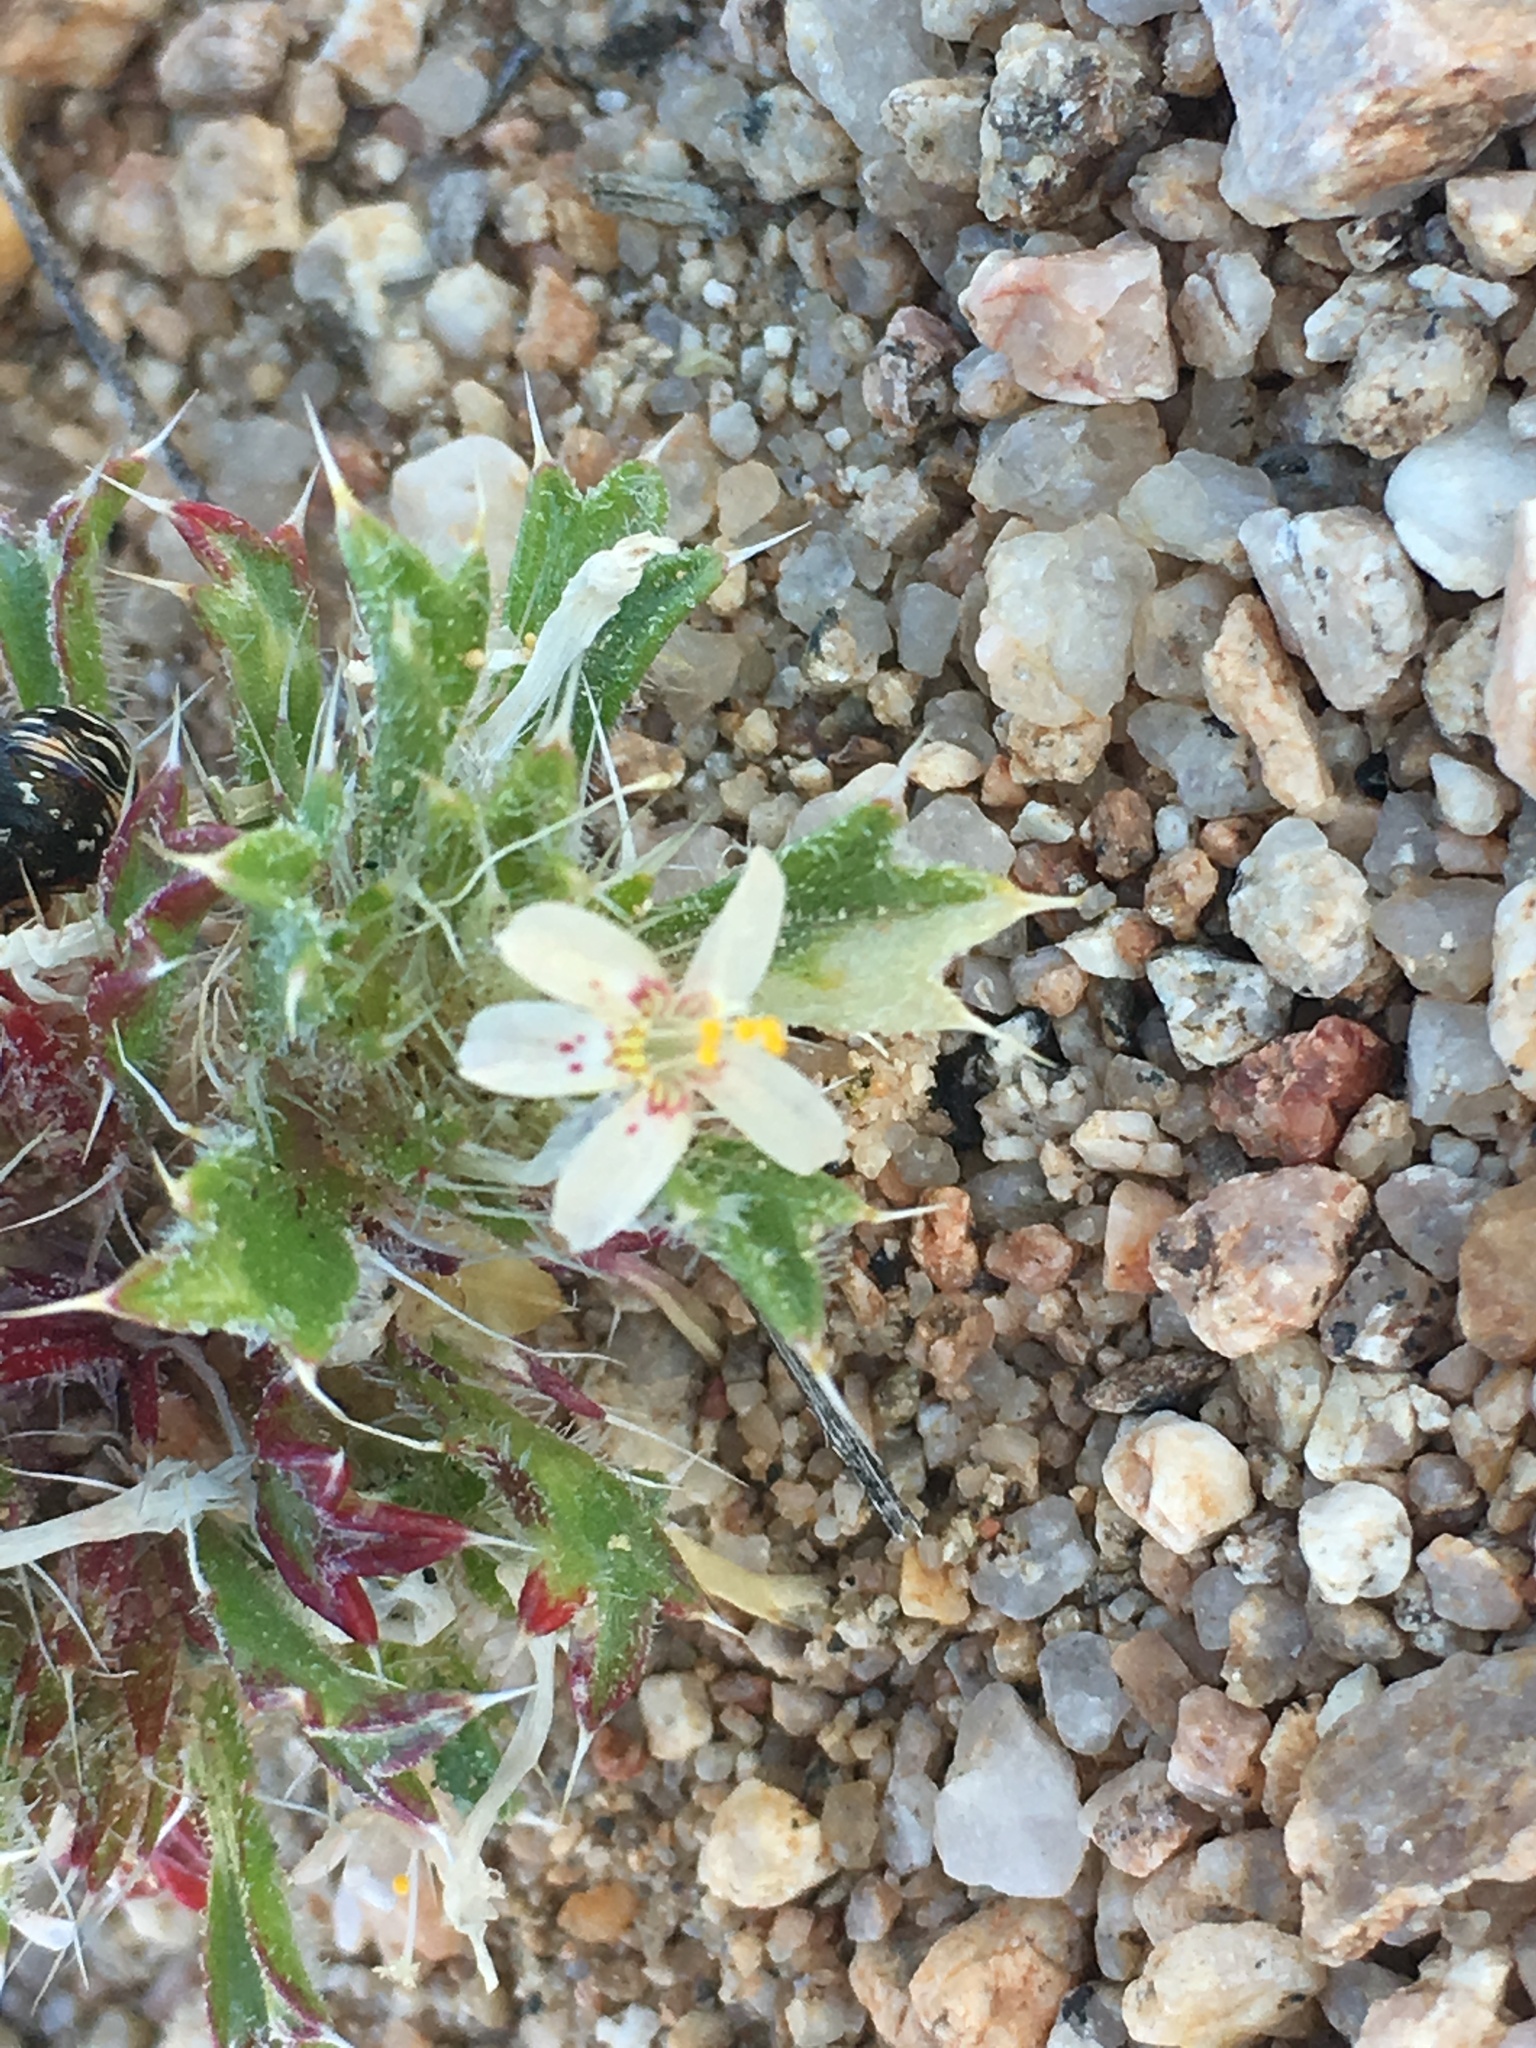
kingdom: Plantae
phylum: Tracheophyta
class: Magnoliopsida
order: Ericales
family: Polemoniaceae
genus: Loeseliastrum
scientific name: Loeseliastrum schottii
